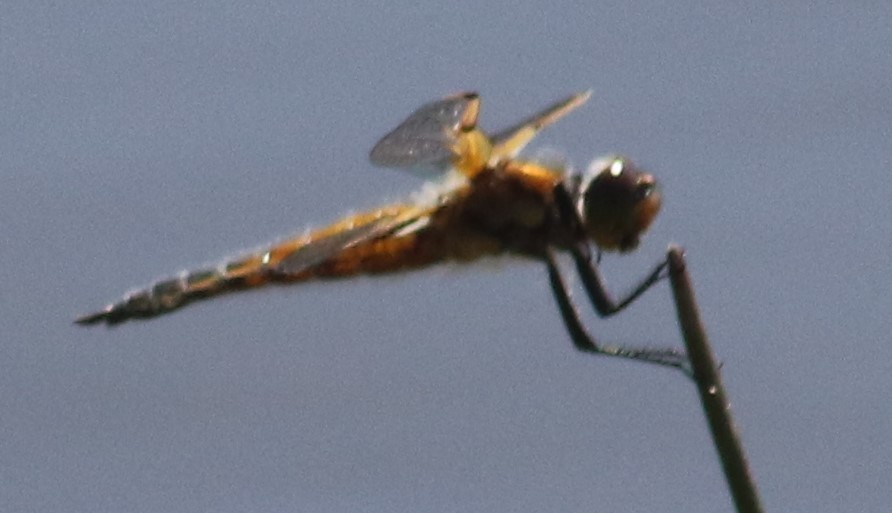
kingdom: Animalia
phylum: Arthropoda
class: Insecta
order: Odonata
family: Libellulidae
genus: Libellula
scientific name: Libellula quadrimaculata
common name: Four-spotted chaser
